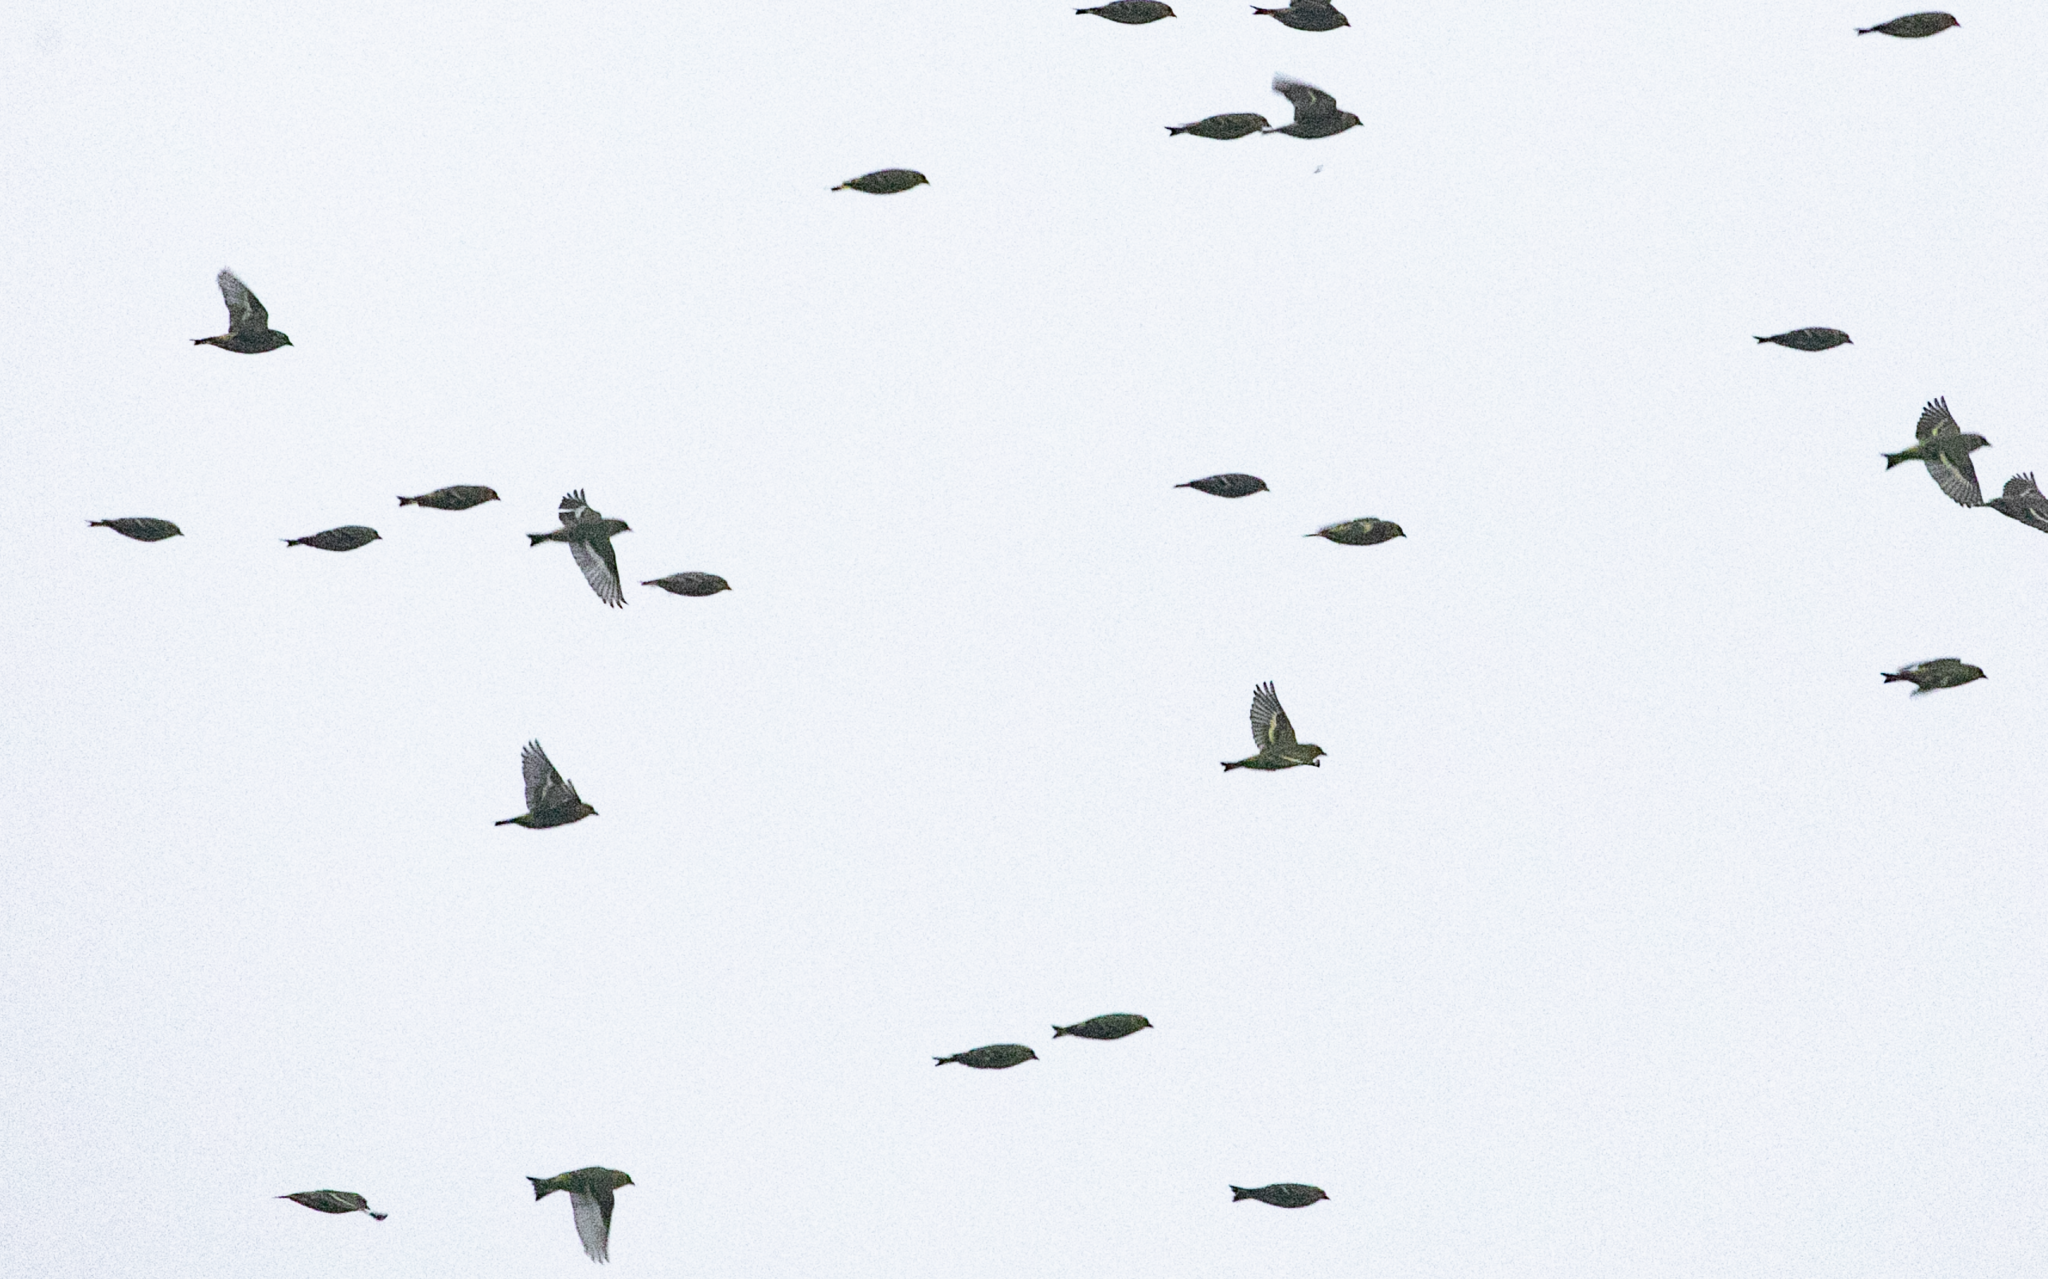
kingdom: Animalia
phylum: Chordata
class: Aves
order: Passeriformes
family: Fringillidae
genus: Spinus
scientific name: Spinus spinus
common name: Eurasian siskin
